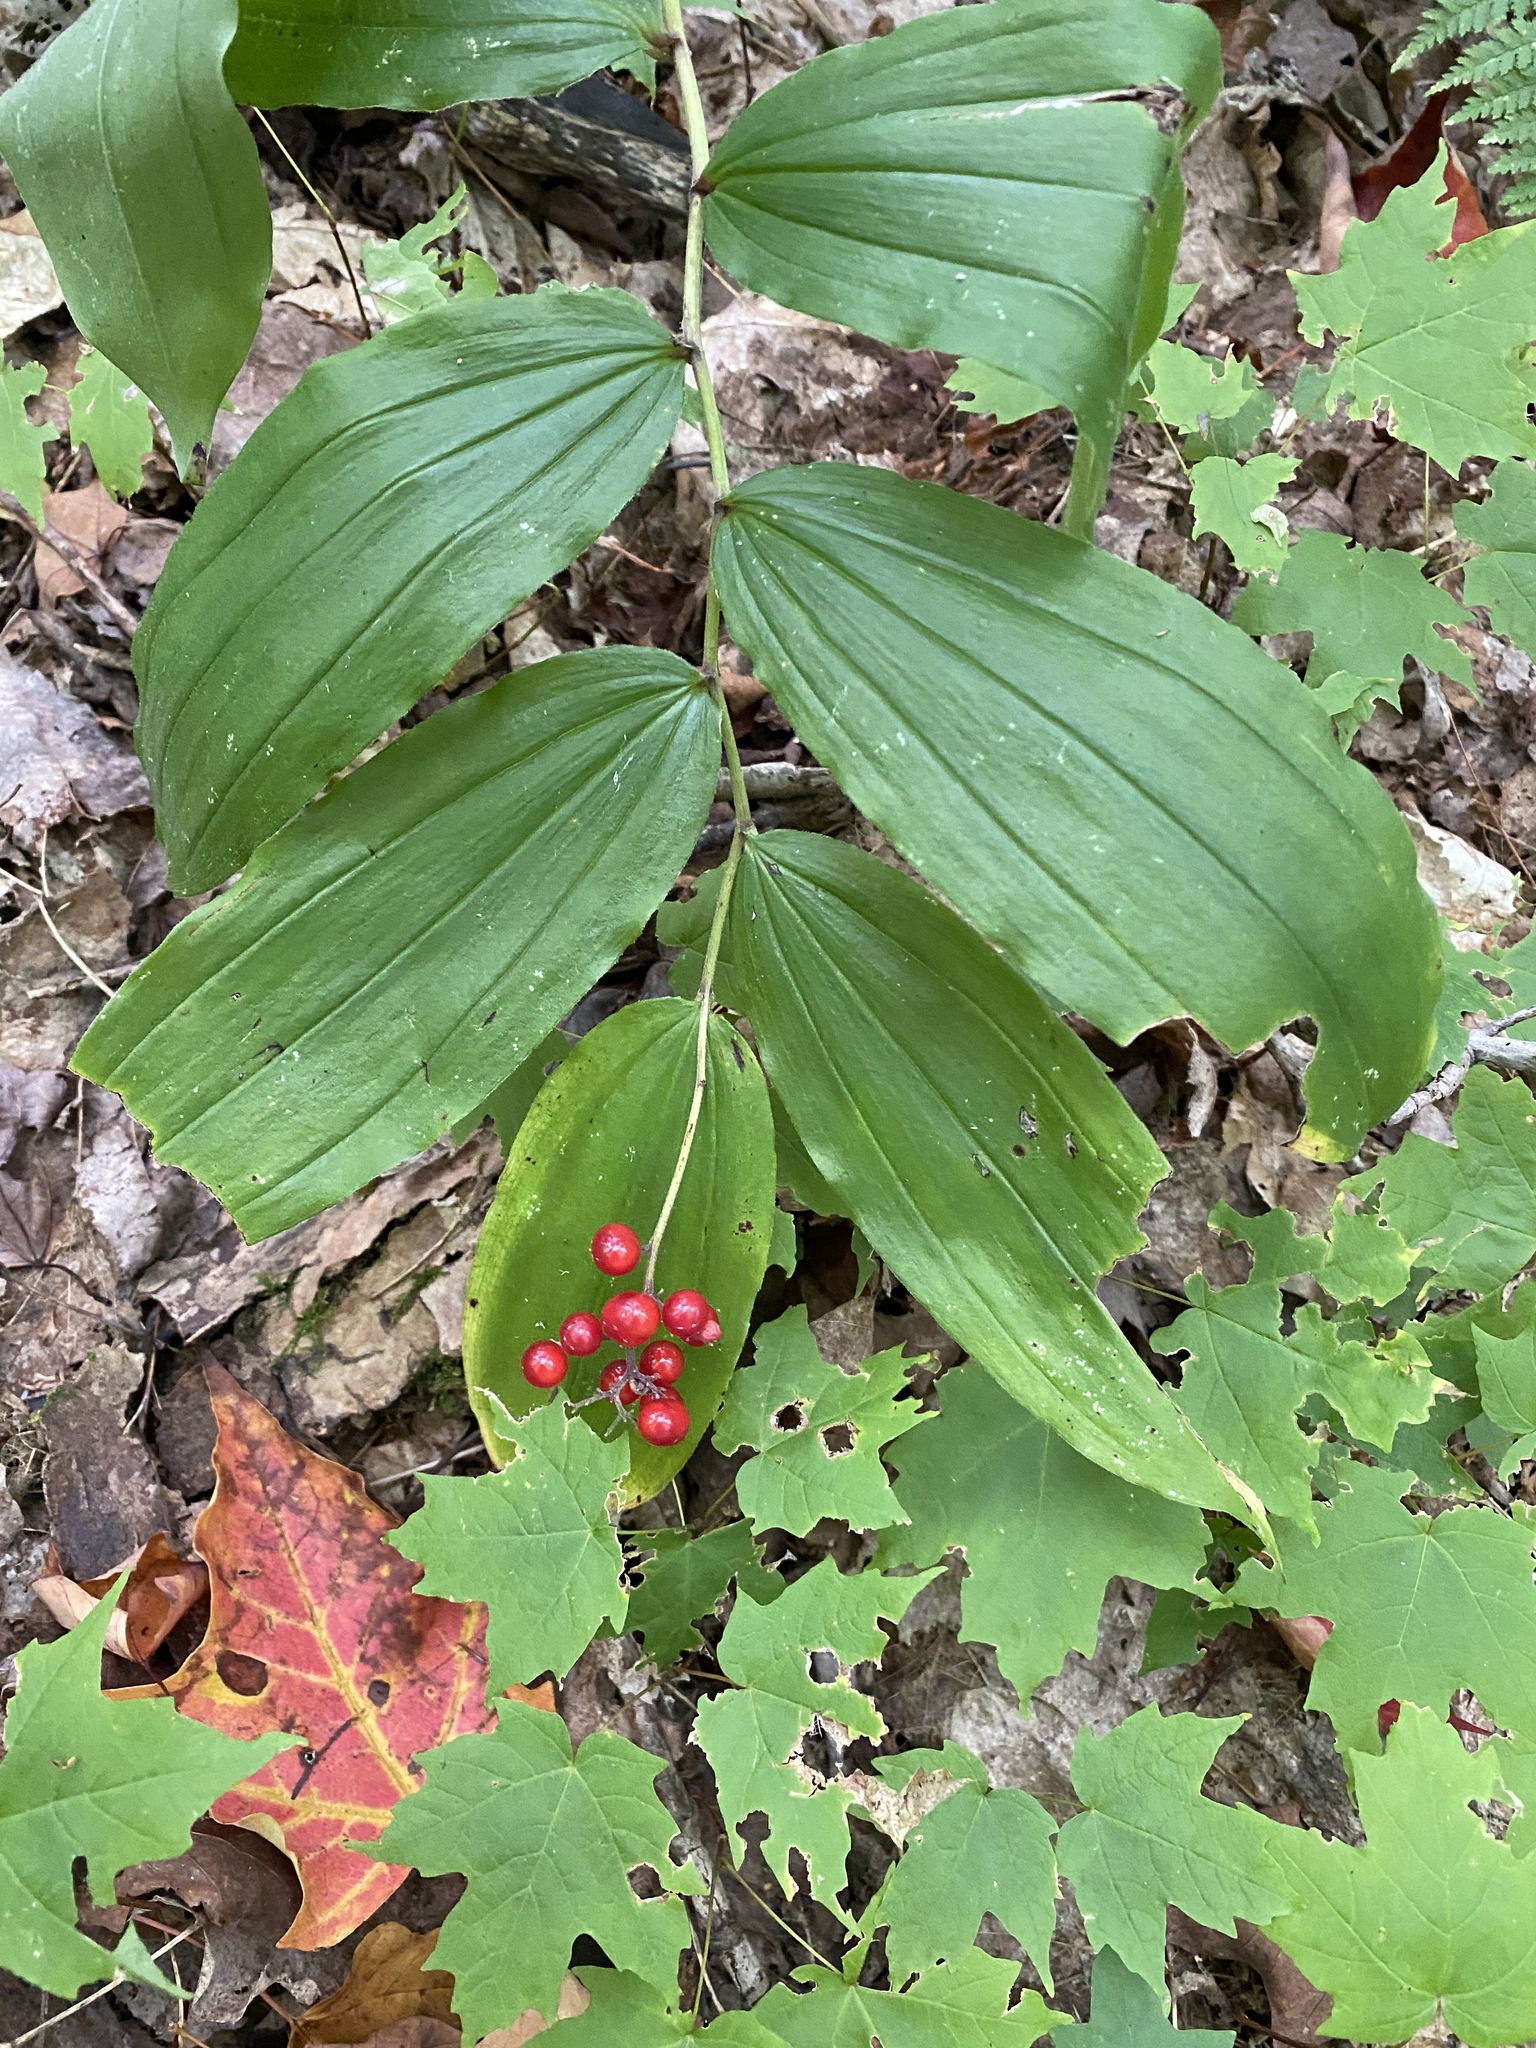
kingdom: Plantae
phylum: Tracheophyta
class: Liliopsida
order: Asparagales
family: Asparagaceae
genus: Maianthemum
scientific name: Maianthemum racemosum
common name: False spikenard
